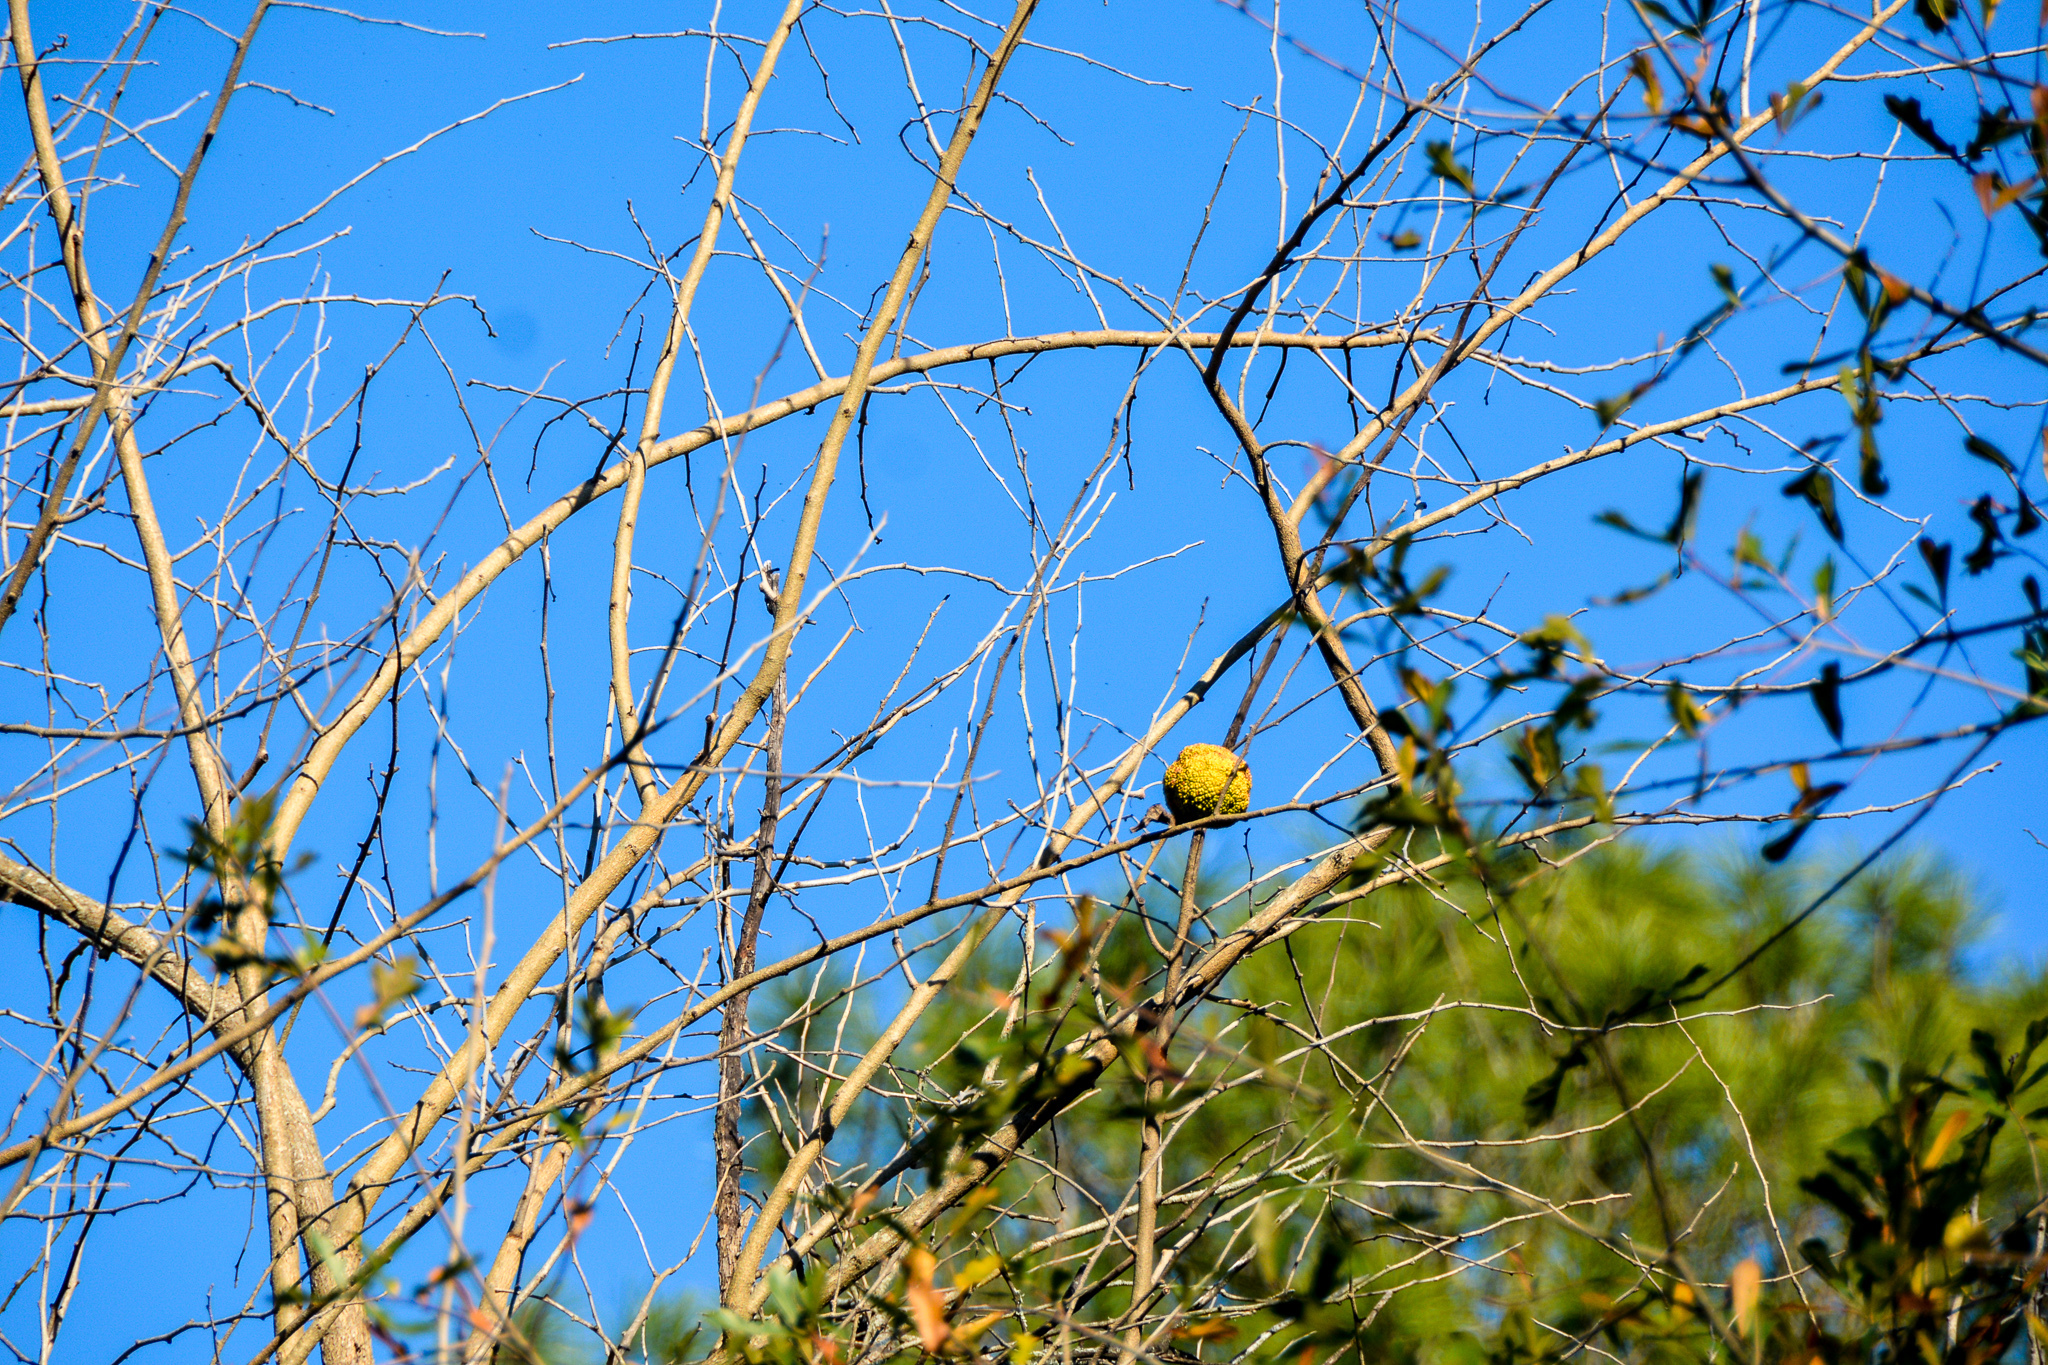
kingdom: Plantae
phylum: Tracheophyta
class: Magnoliopsida
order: Rosales
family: Moraceae
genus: Maclura
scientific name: Maclura pomifera
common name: Osage-orange
